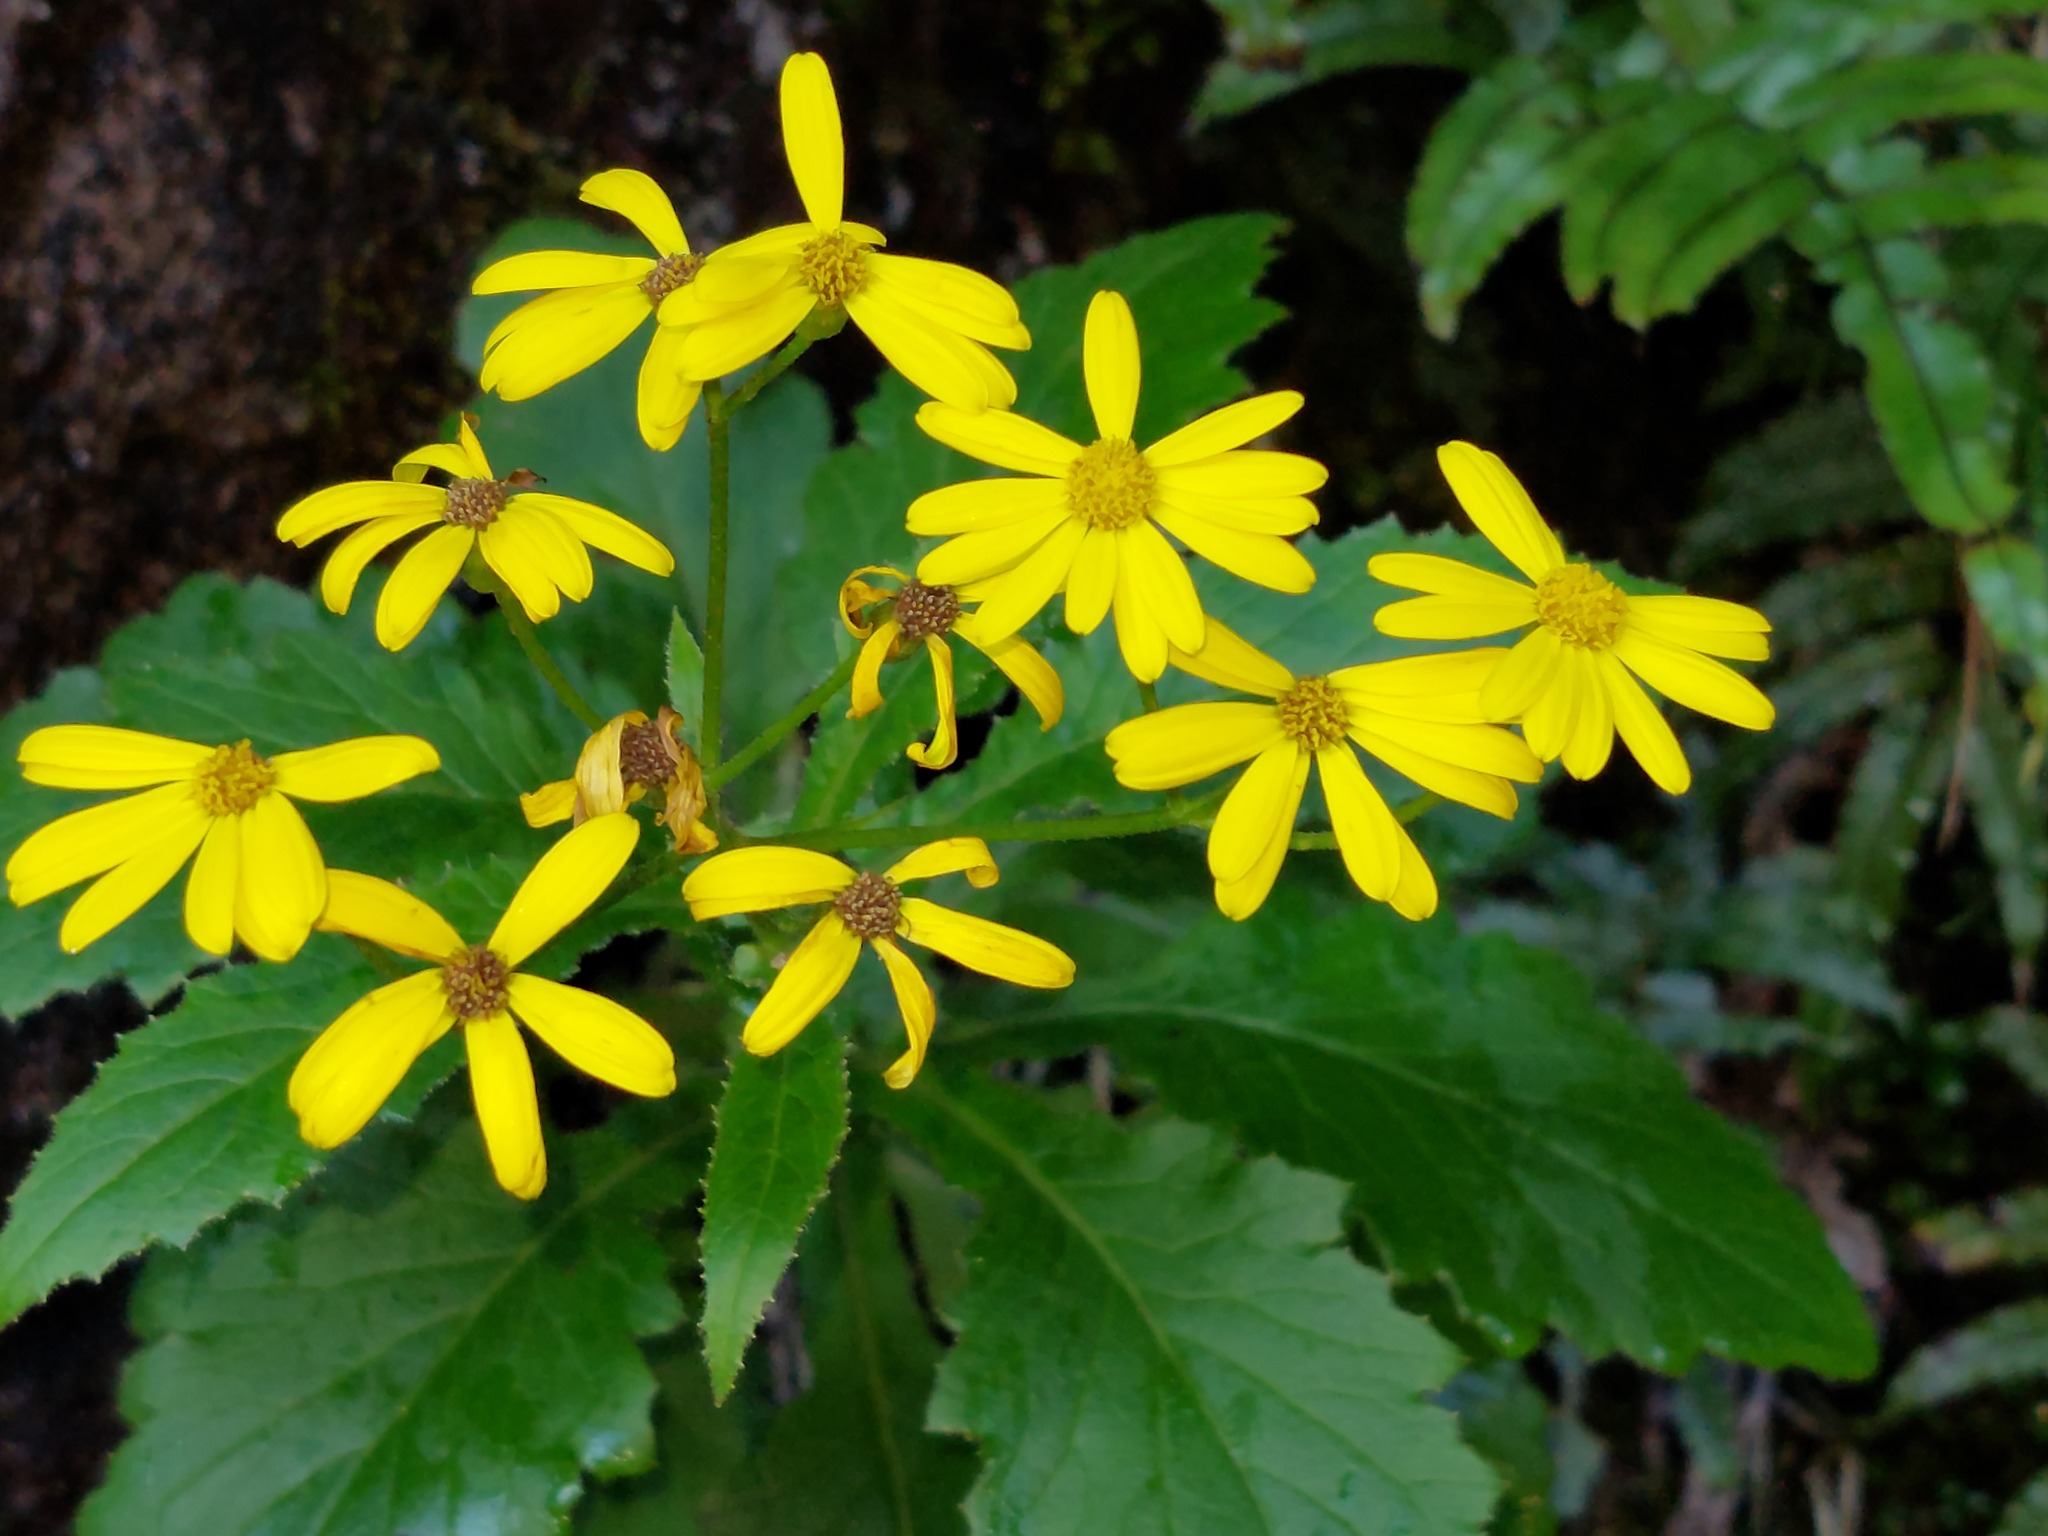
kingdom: Plantae
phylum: Tracheophyta
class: Magnoliopsida
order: Asterales
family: Asteraceae
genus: Senecio
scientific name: Senecio rufiglandulosus
